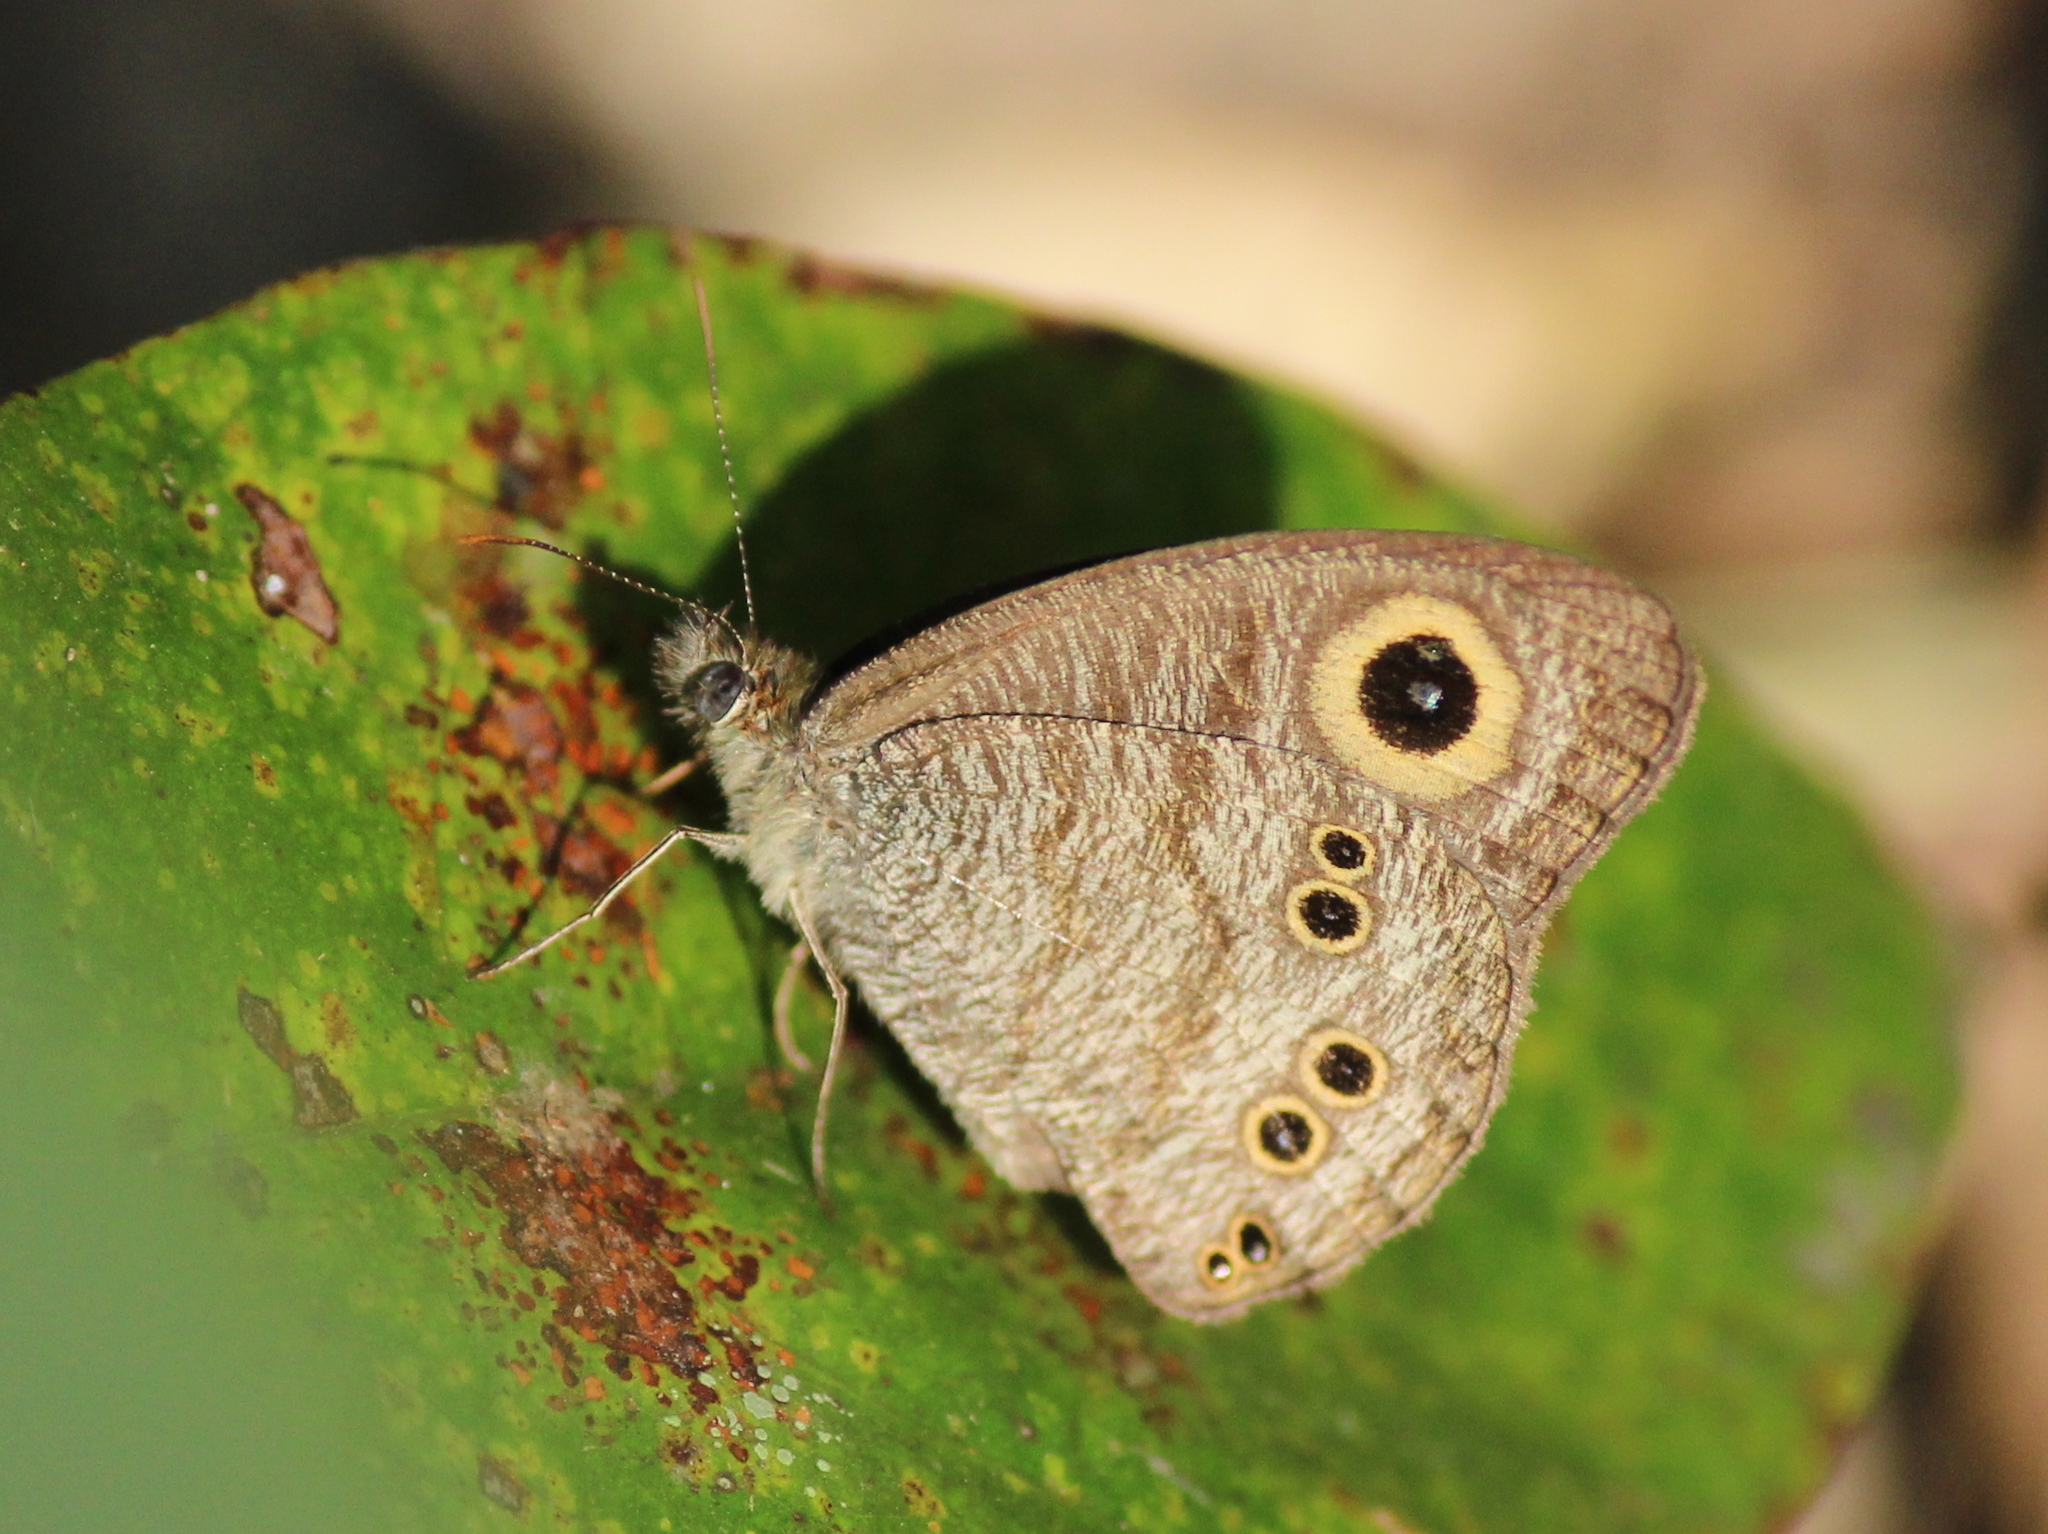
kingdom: Animalia
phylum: Arthropoda
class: Insecta
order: Lepidoptera
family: Nymphalidae
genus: Ypthima
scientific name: Ypthima baldus
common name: Common five-ring
